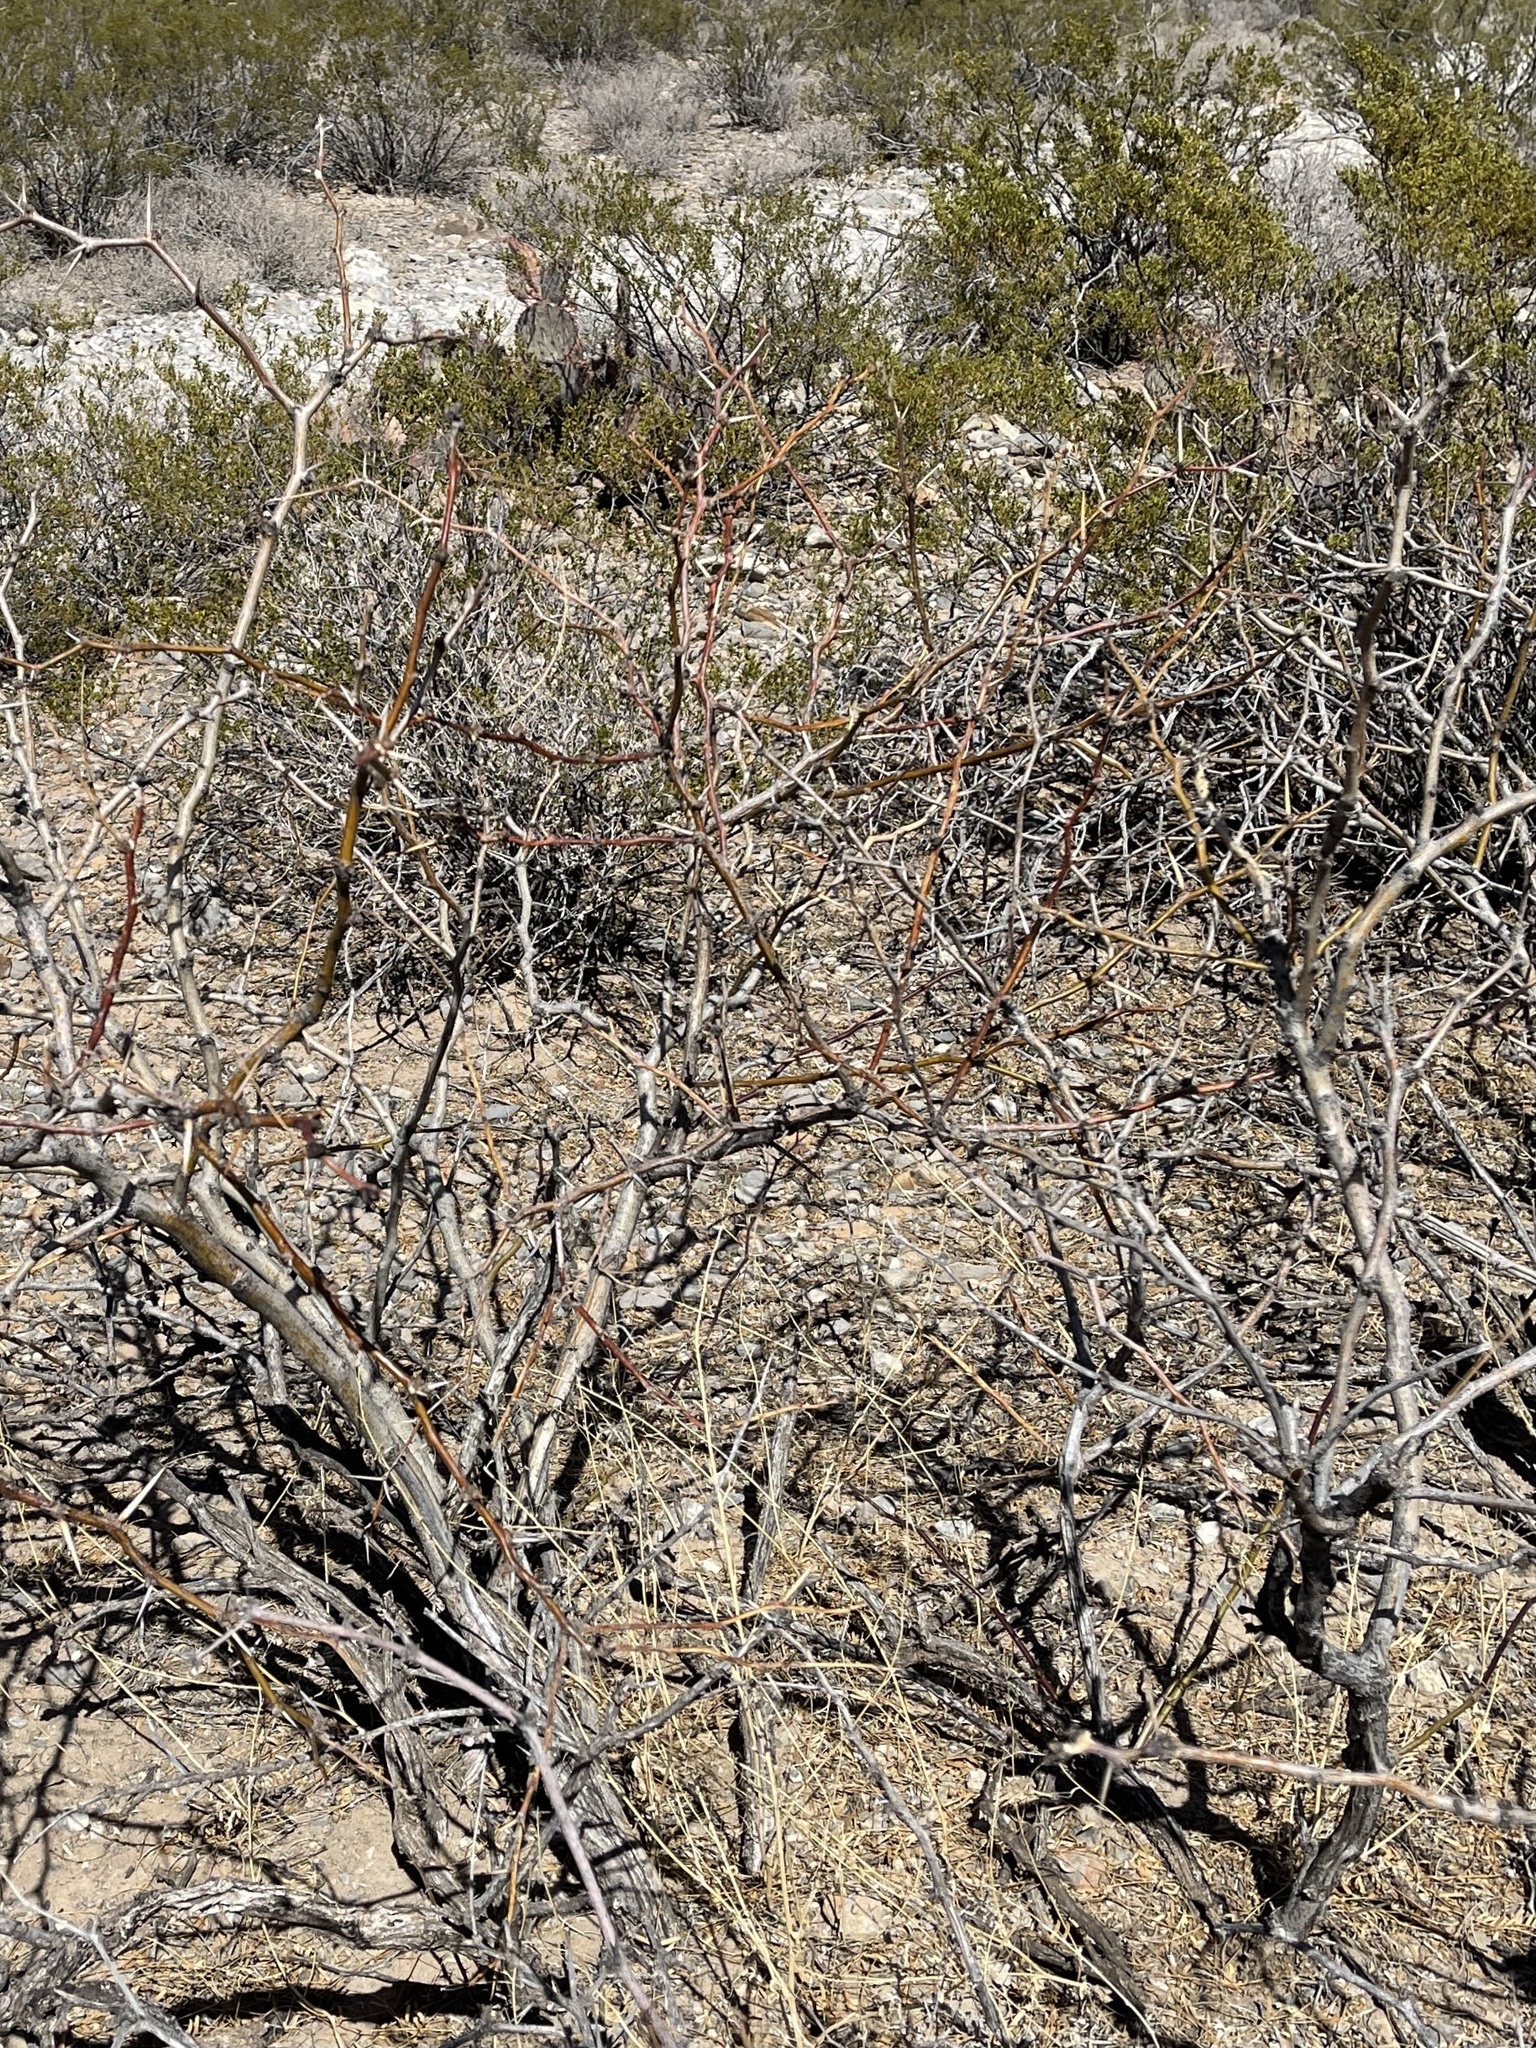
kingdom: Plantae
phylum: Tracheophyta
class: Magnoliopsida
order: Fabales
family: Fabaceae
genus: Prosopis
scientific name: Prosopis glandulosa
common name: Honey mesquite
